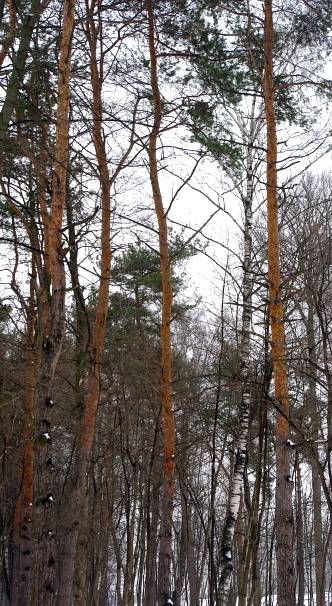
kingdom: Plantae
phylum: Tracheophyta
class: Pinopsida
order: Pinales
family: Pinaceae
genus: Pinus
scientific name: Pinus sylvestris
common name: Scots pine
